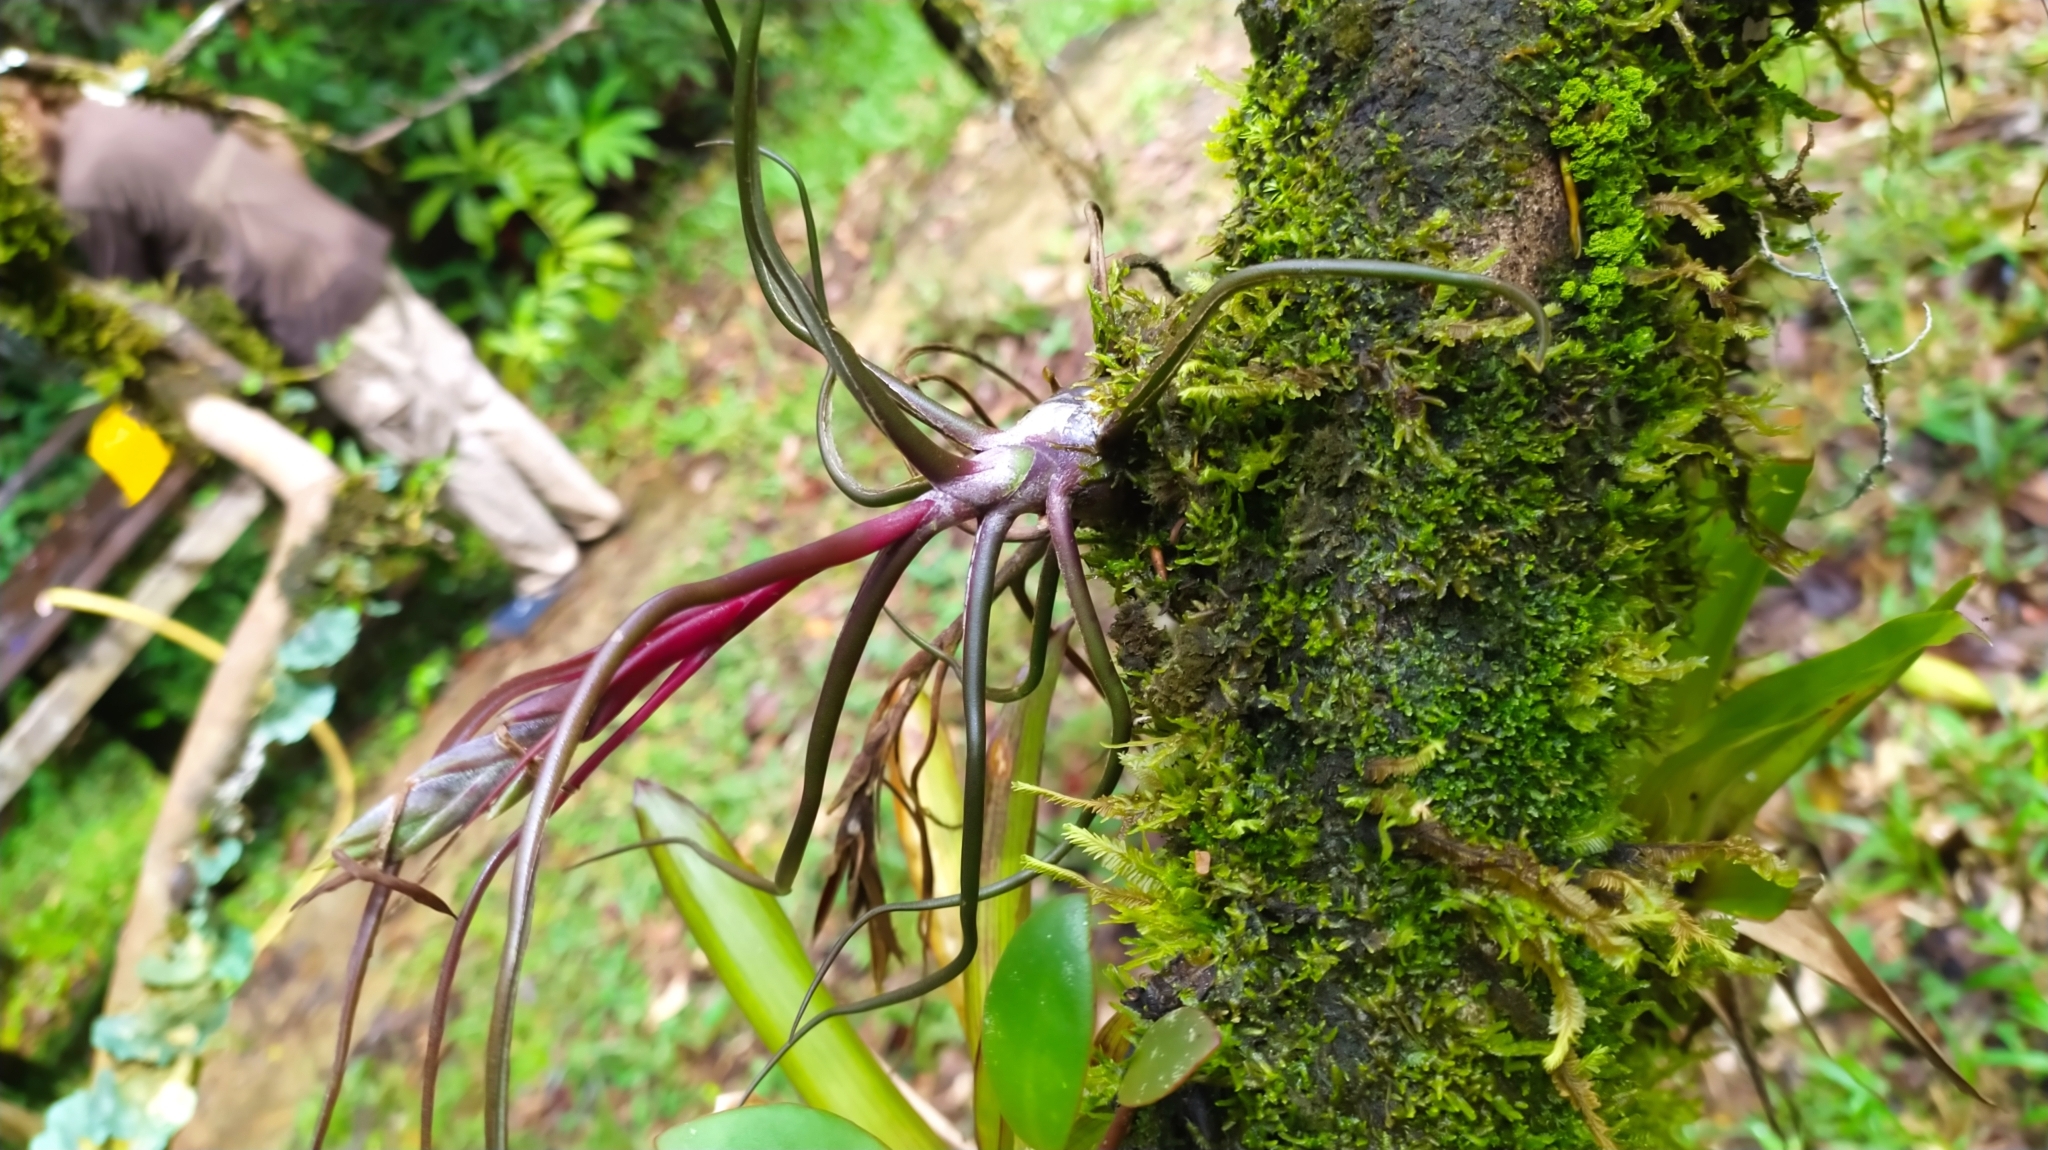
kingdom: Plantae
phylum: Tracheophyta
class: Liliopsida
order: Poales
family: Bromeliaceae
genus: Tillandsia
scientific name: Tillandsia bulbosa
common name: Bulbous airplant
